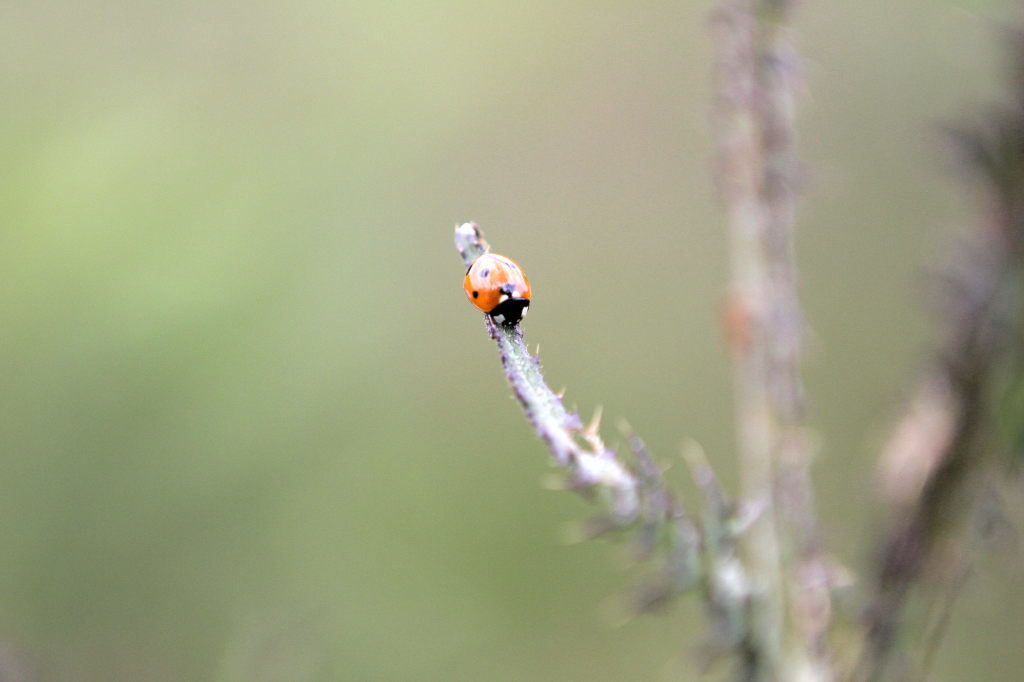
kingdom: Animalia
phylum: Arthropoda
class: Insecta
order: Coleoptera
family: Coccinellidae
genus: Coccinella
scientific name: Coccinella septempunctata
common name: Sevenspotted lady beetle
